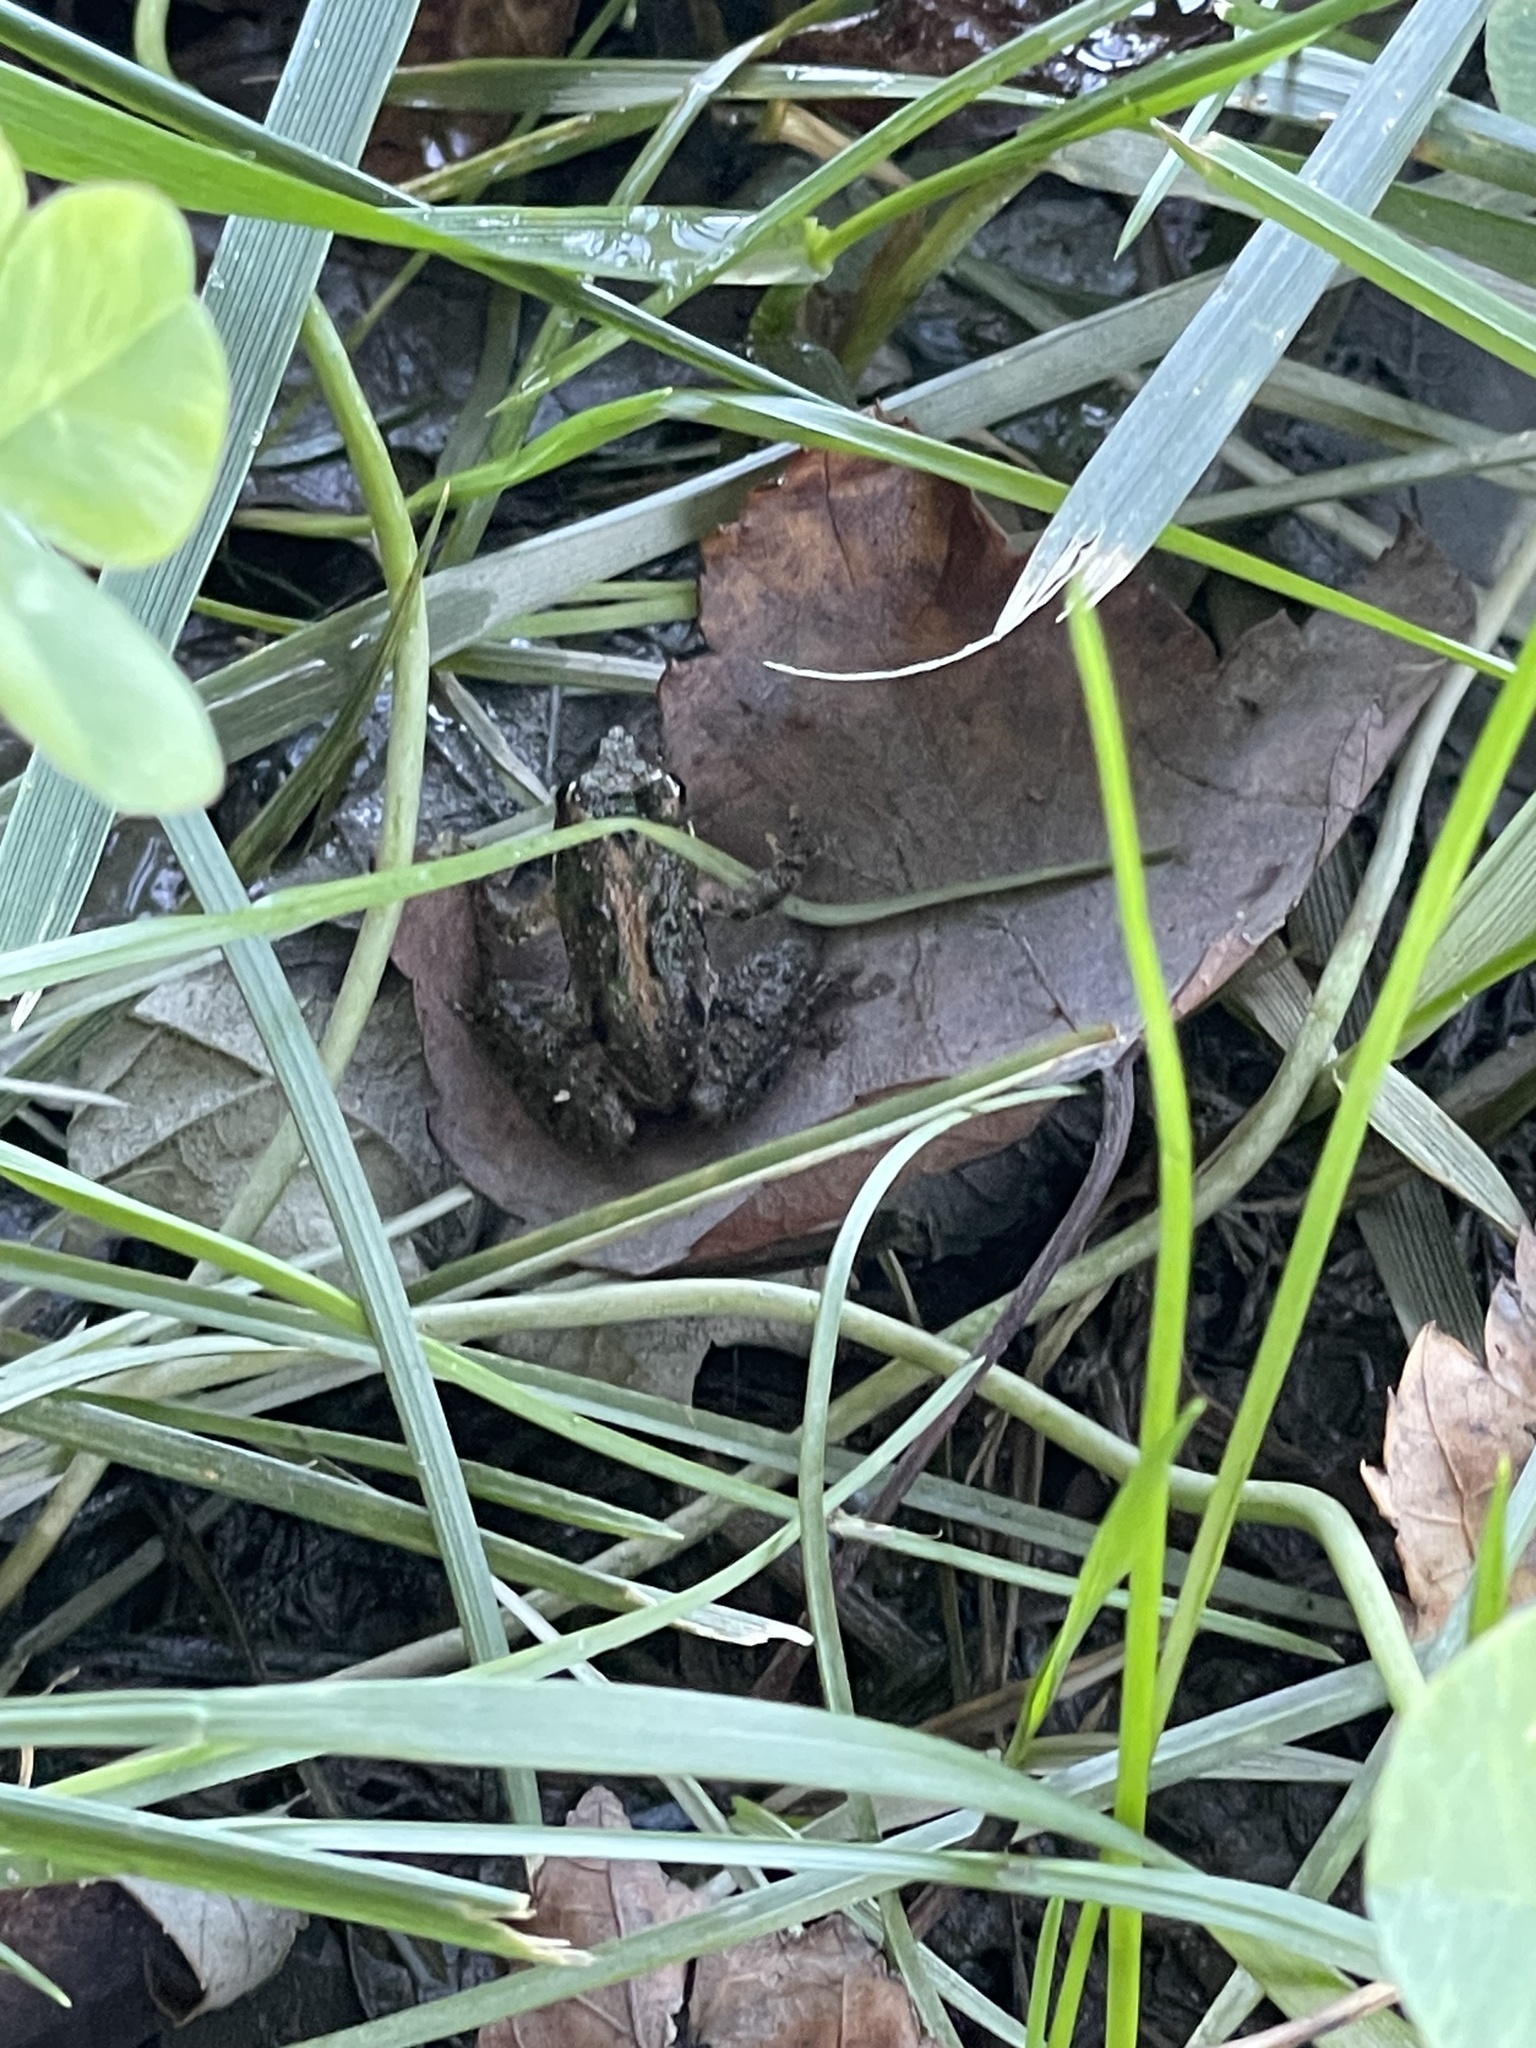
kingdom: Animalia
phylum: Chordata
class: Amphibia
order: Anura
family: Hylidae
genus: Acris
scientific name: Acris crepitans
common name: Northern cricket frog
